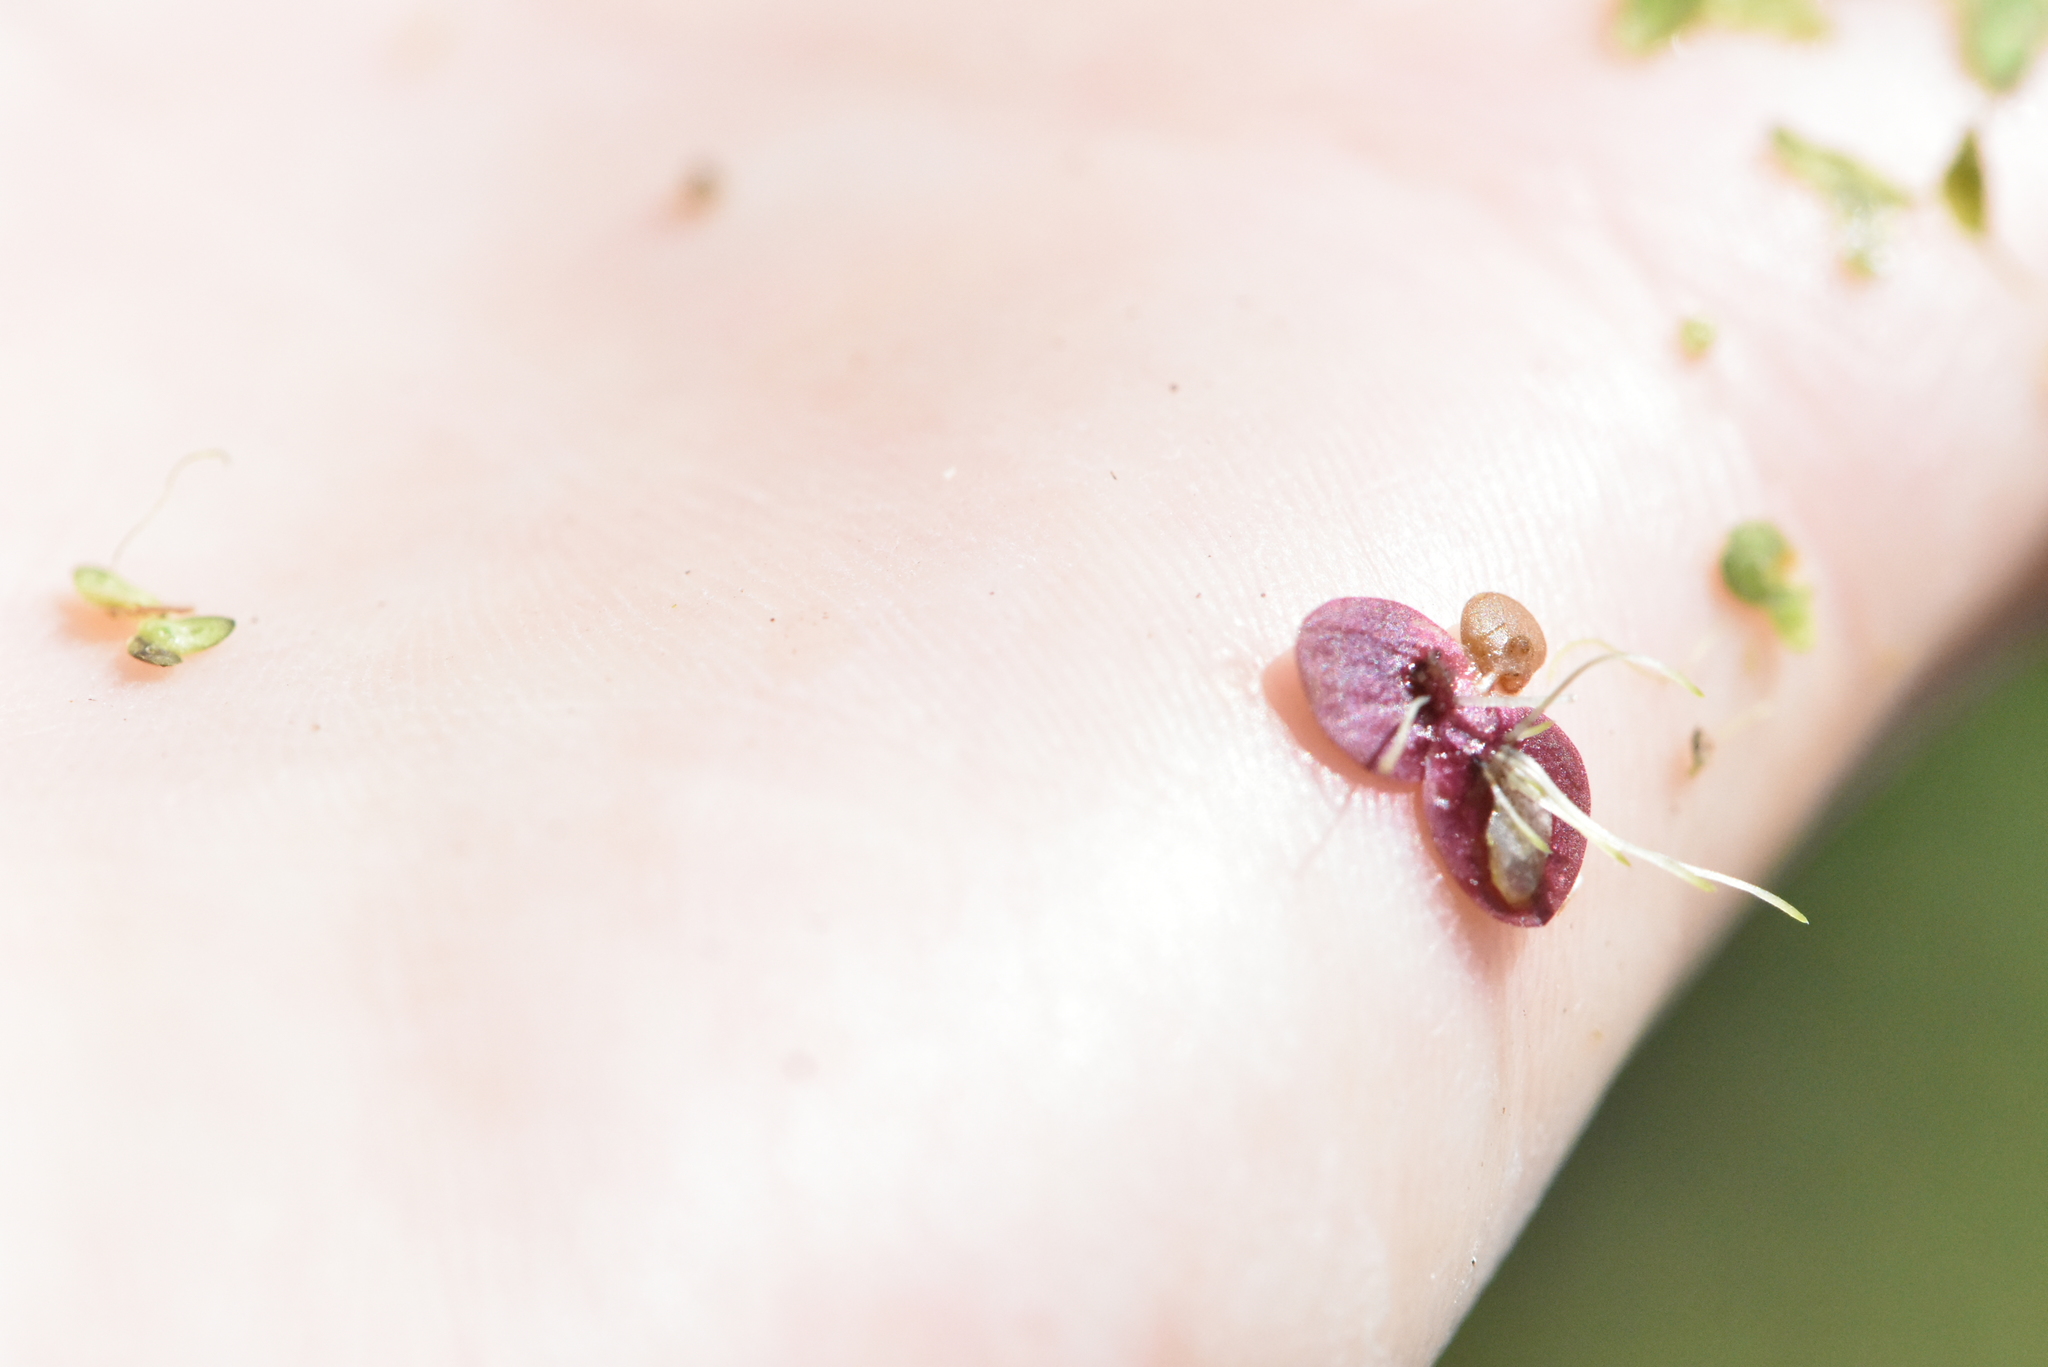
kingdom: Plantae
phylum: Tracheophyta
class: Liliopsida
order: Alismatales
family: Araceae
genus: Spirodela
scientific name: Spirodela polyrhiza
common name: Great duckweed
